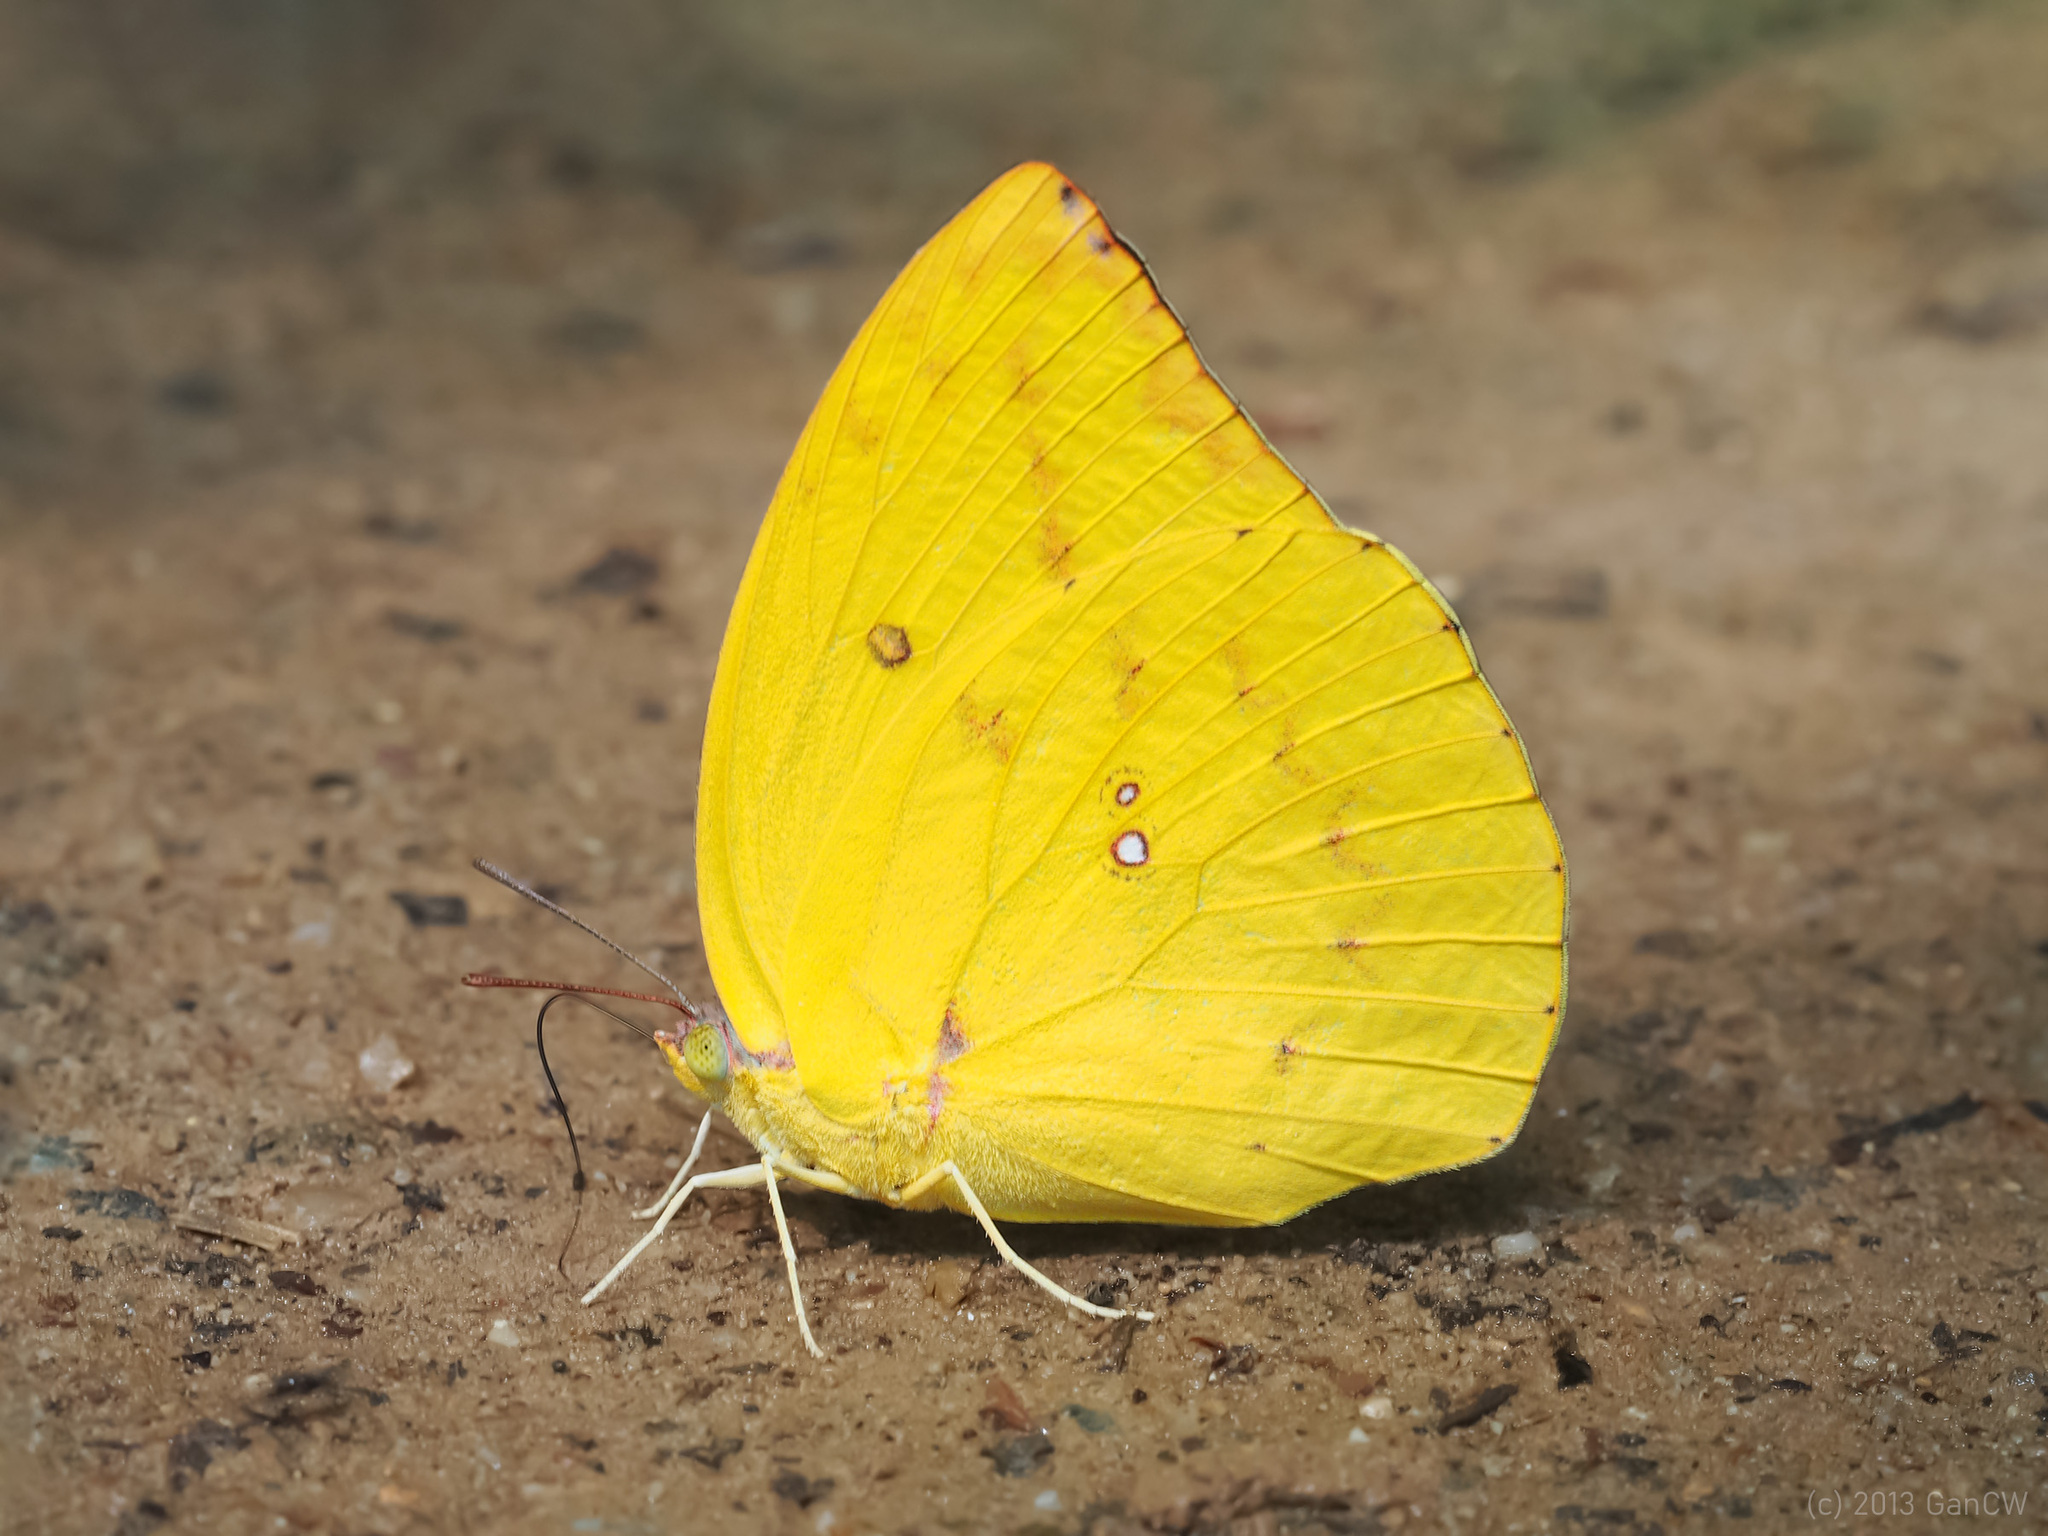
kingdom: Animalia
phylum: Arthropoda
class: Insecta
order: Lepidoptera
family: Pieridae
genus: Catopsilia
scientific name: Catopsilia pomona
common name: Common emigrant
